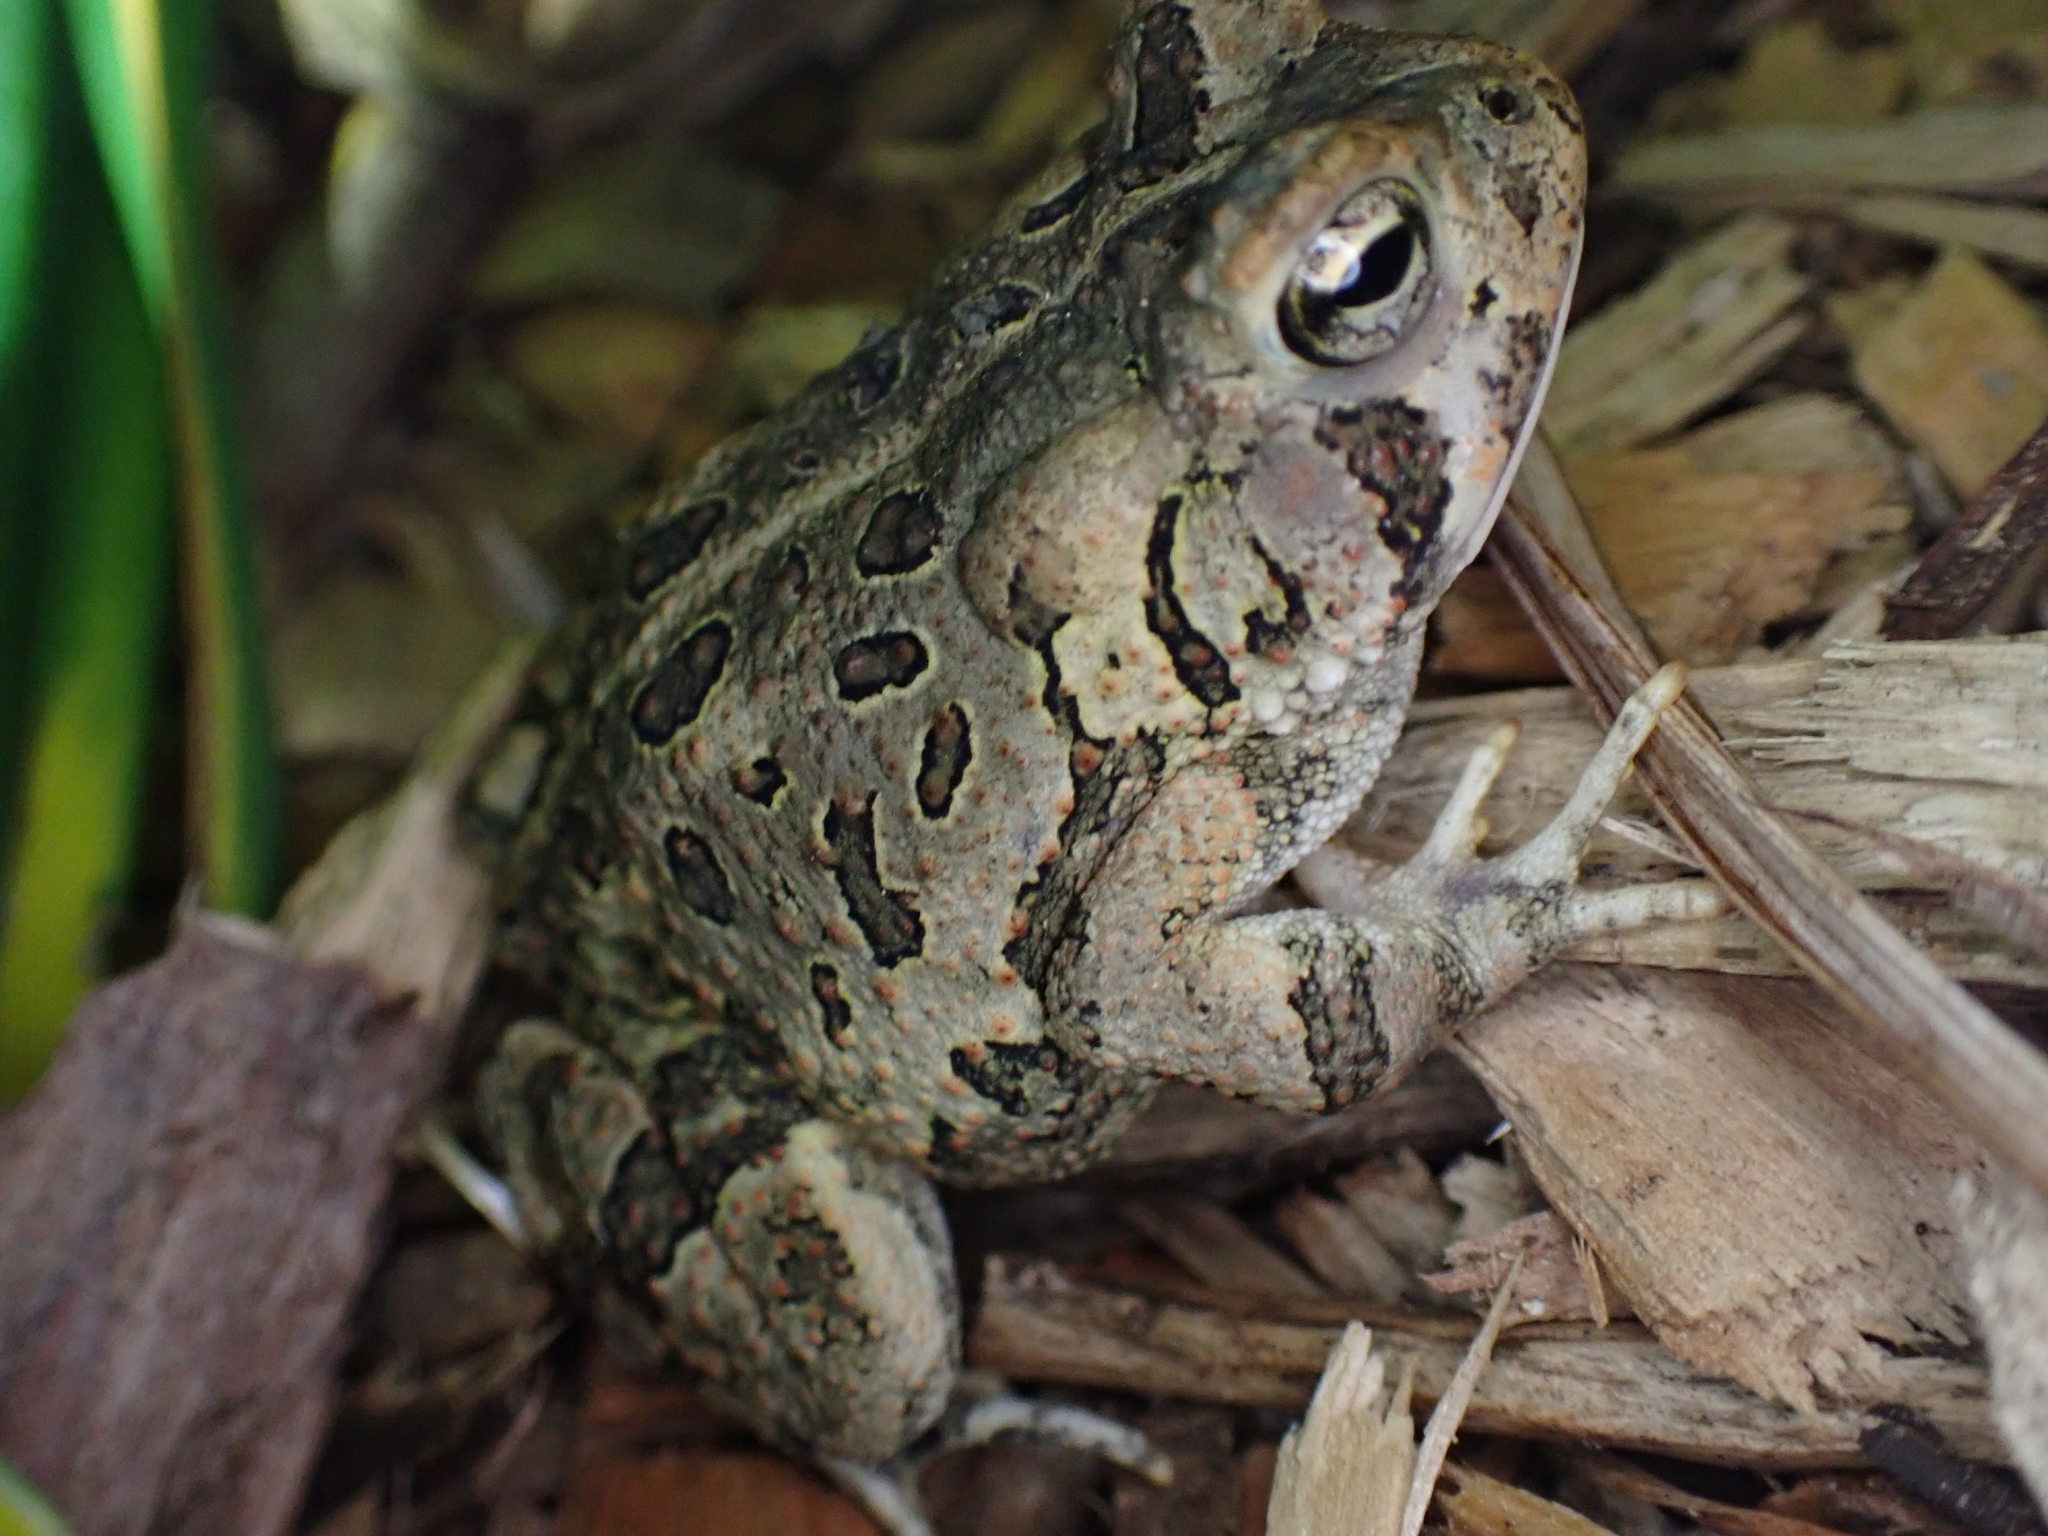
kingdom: Animalia
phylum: Chordata
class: Amphibia
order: Anura
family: Bufonidae
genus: Anaxyrus
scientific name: Anaxyrus fowleri
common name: Fowler's toad
